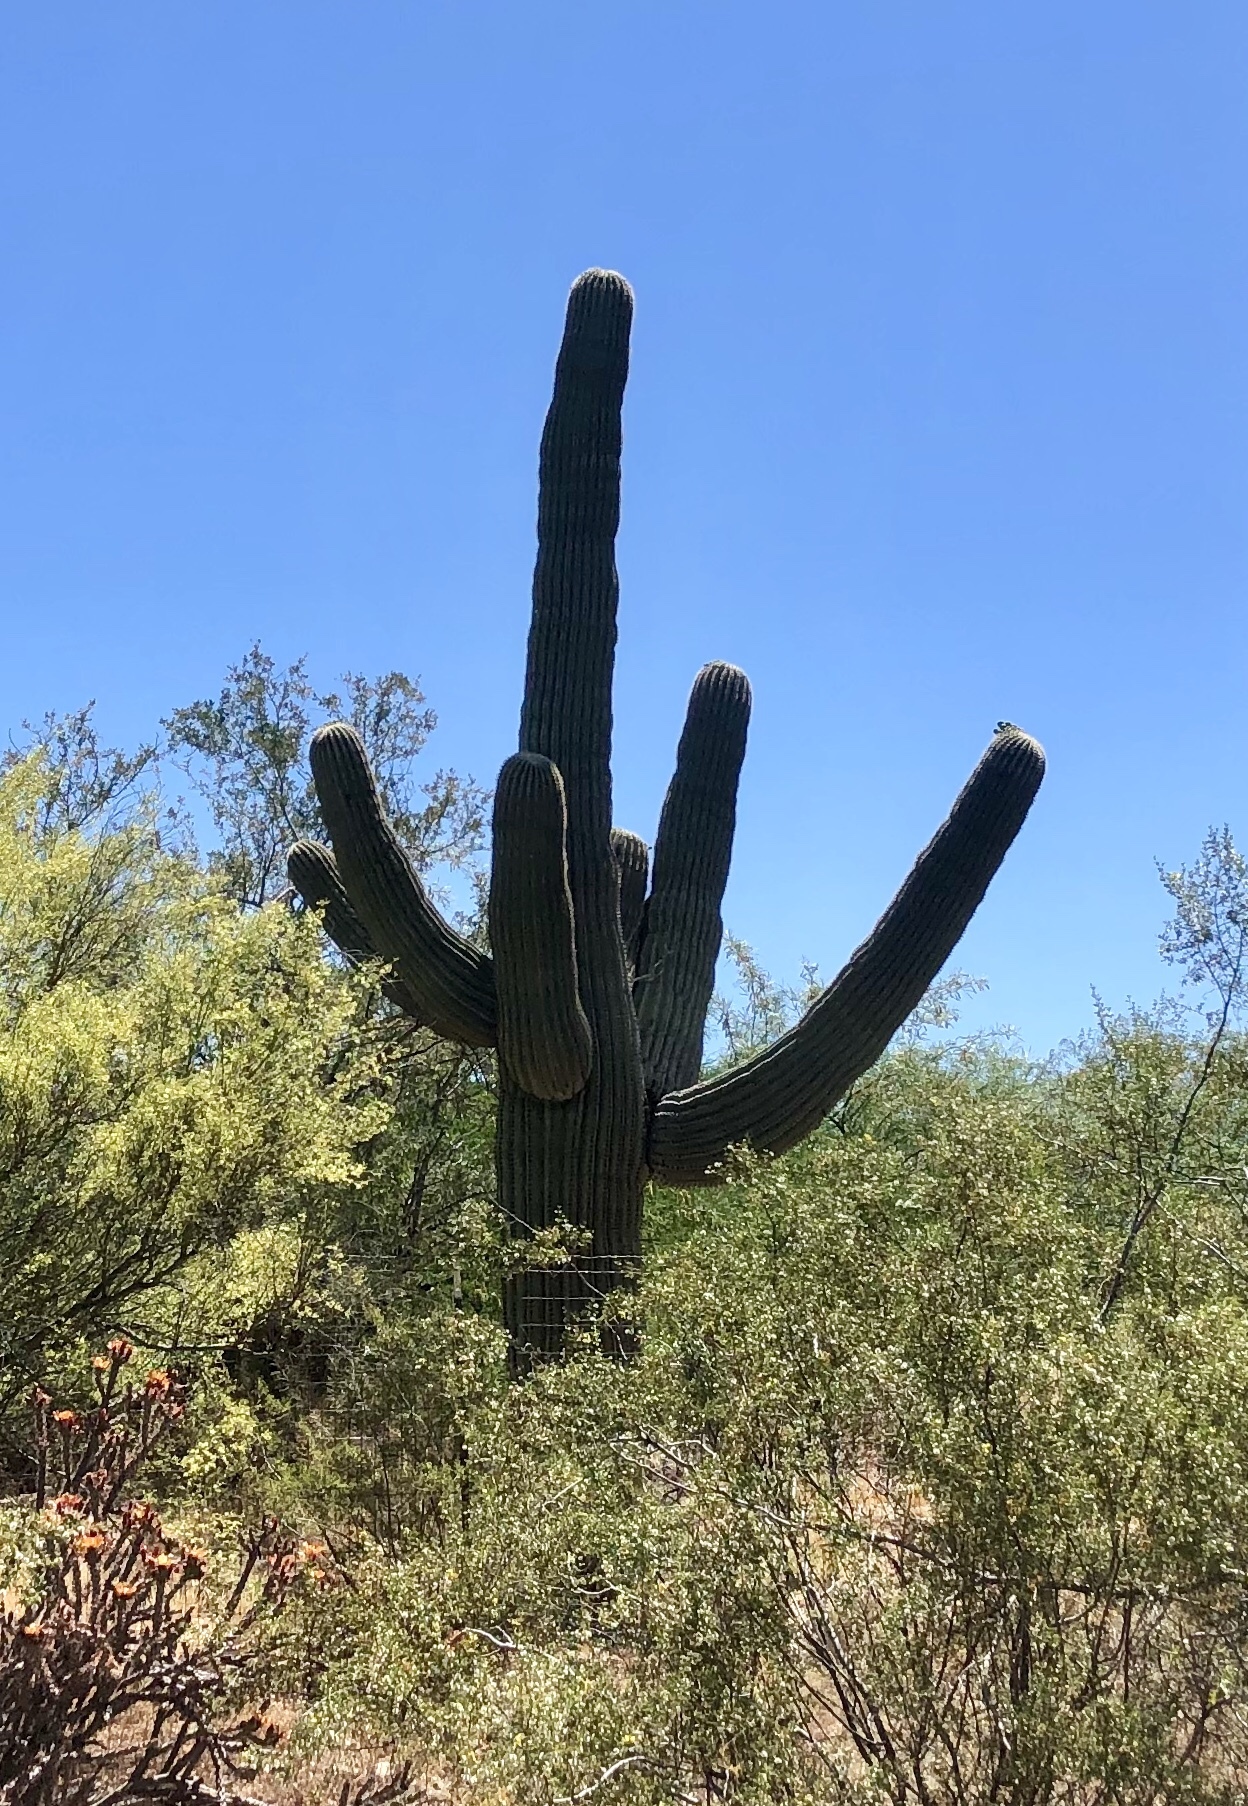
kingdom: Plantae
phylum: Tracheophyta
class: Magnoliopsida
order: Caryophyllales
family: Cactaceae
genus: Carnegiea
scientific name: Carnegiea gigantea
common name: Saguaro
